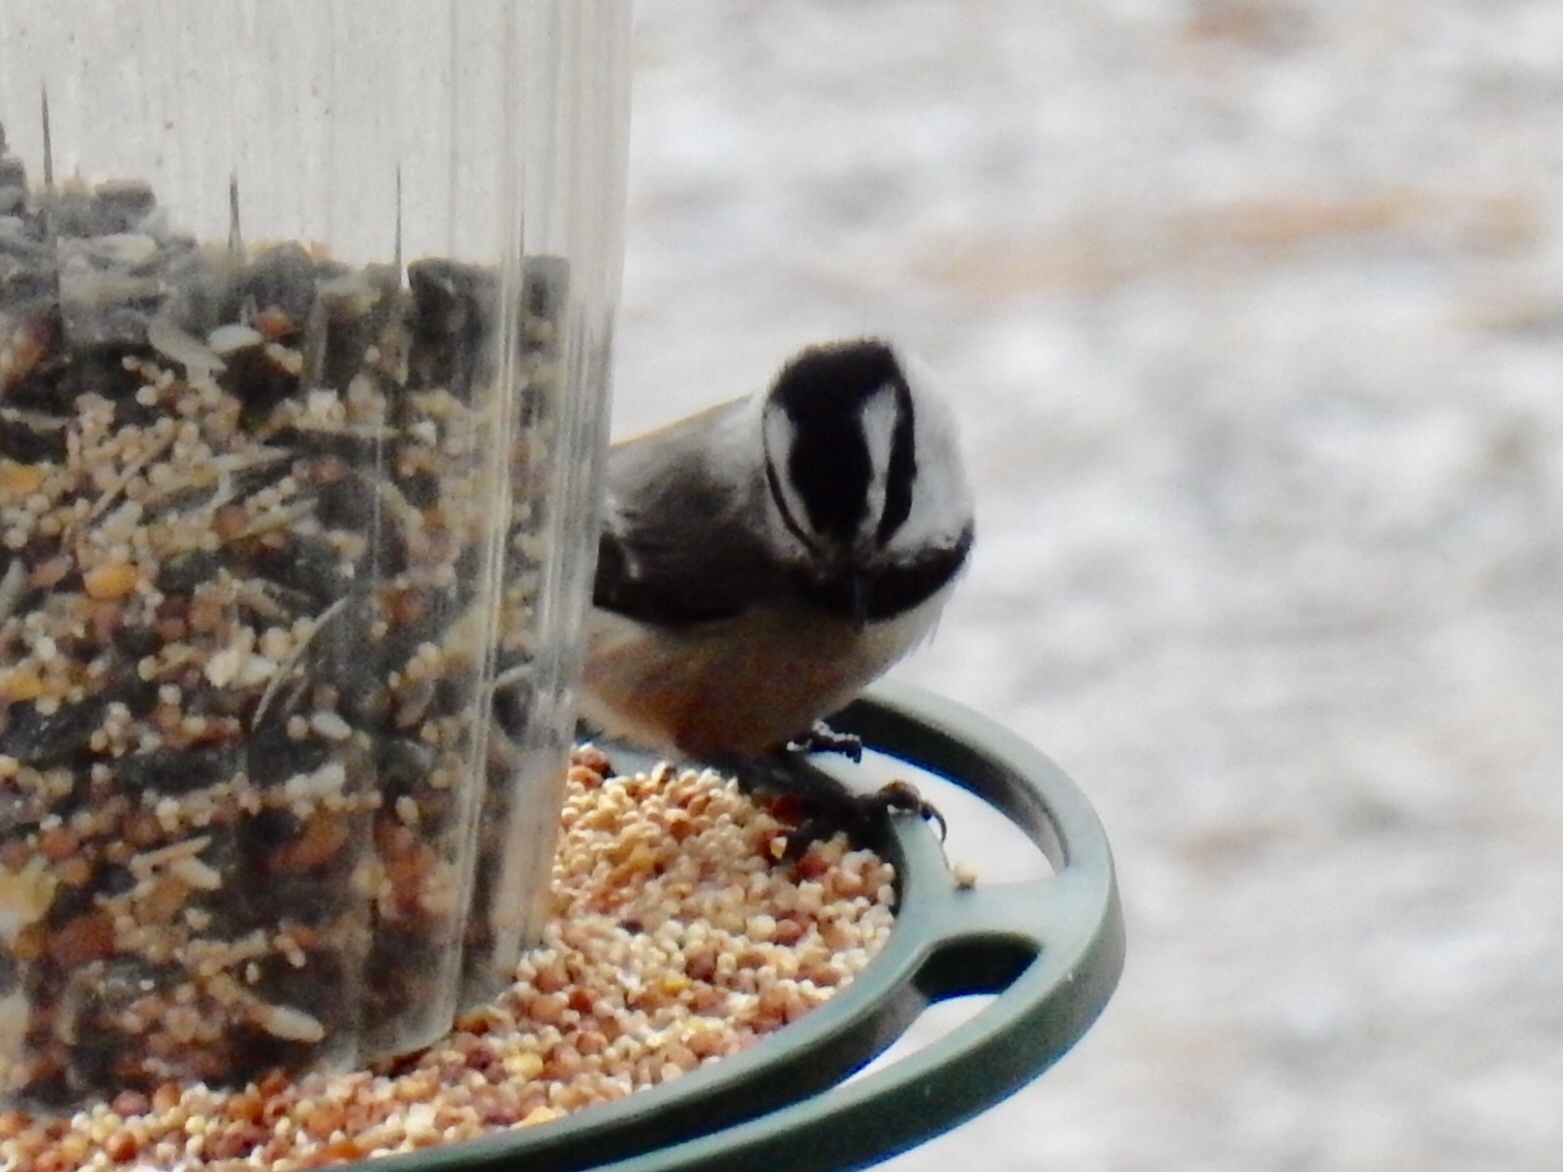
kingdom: Animalia
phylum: Chordata
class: Aves
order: Passeriformes
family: Paridae
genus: Poecile
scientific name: Poecile gambeli
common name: Mountain chickadee
